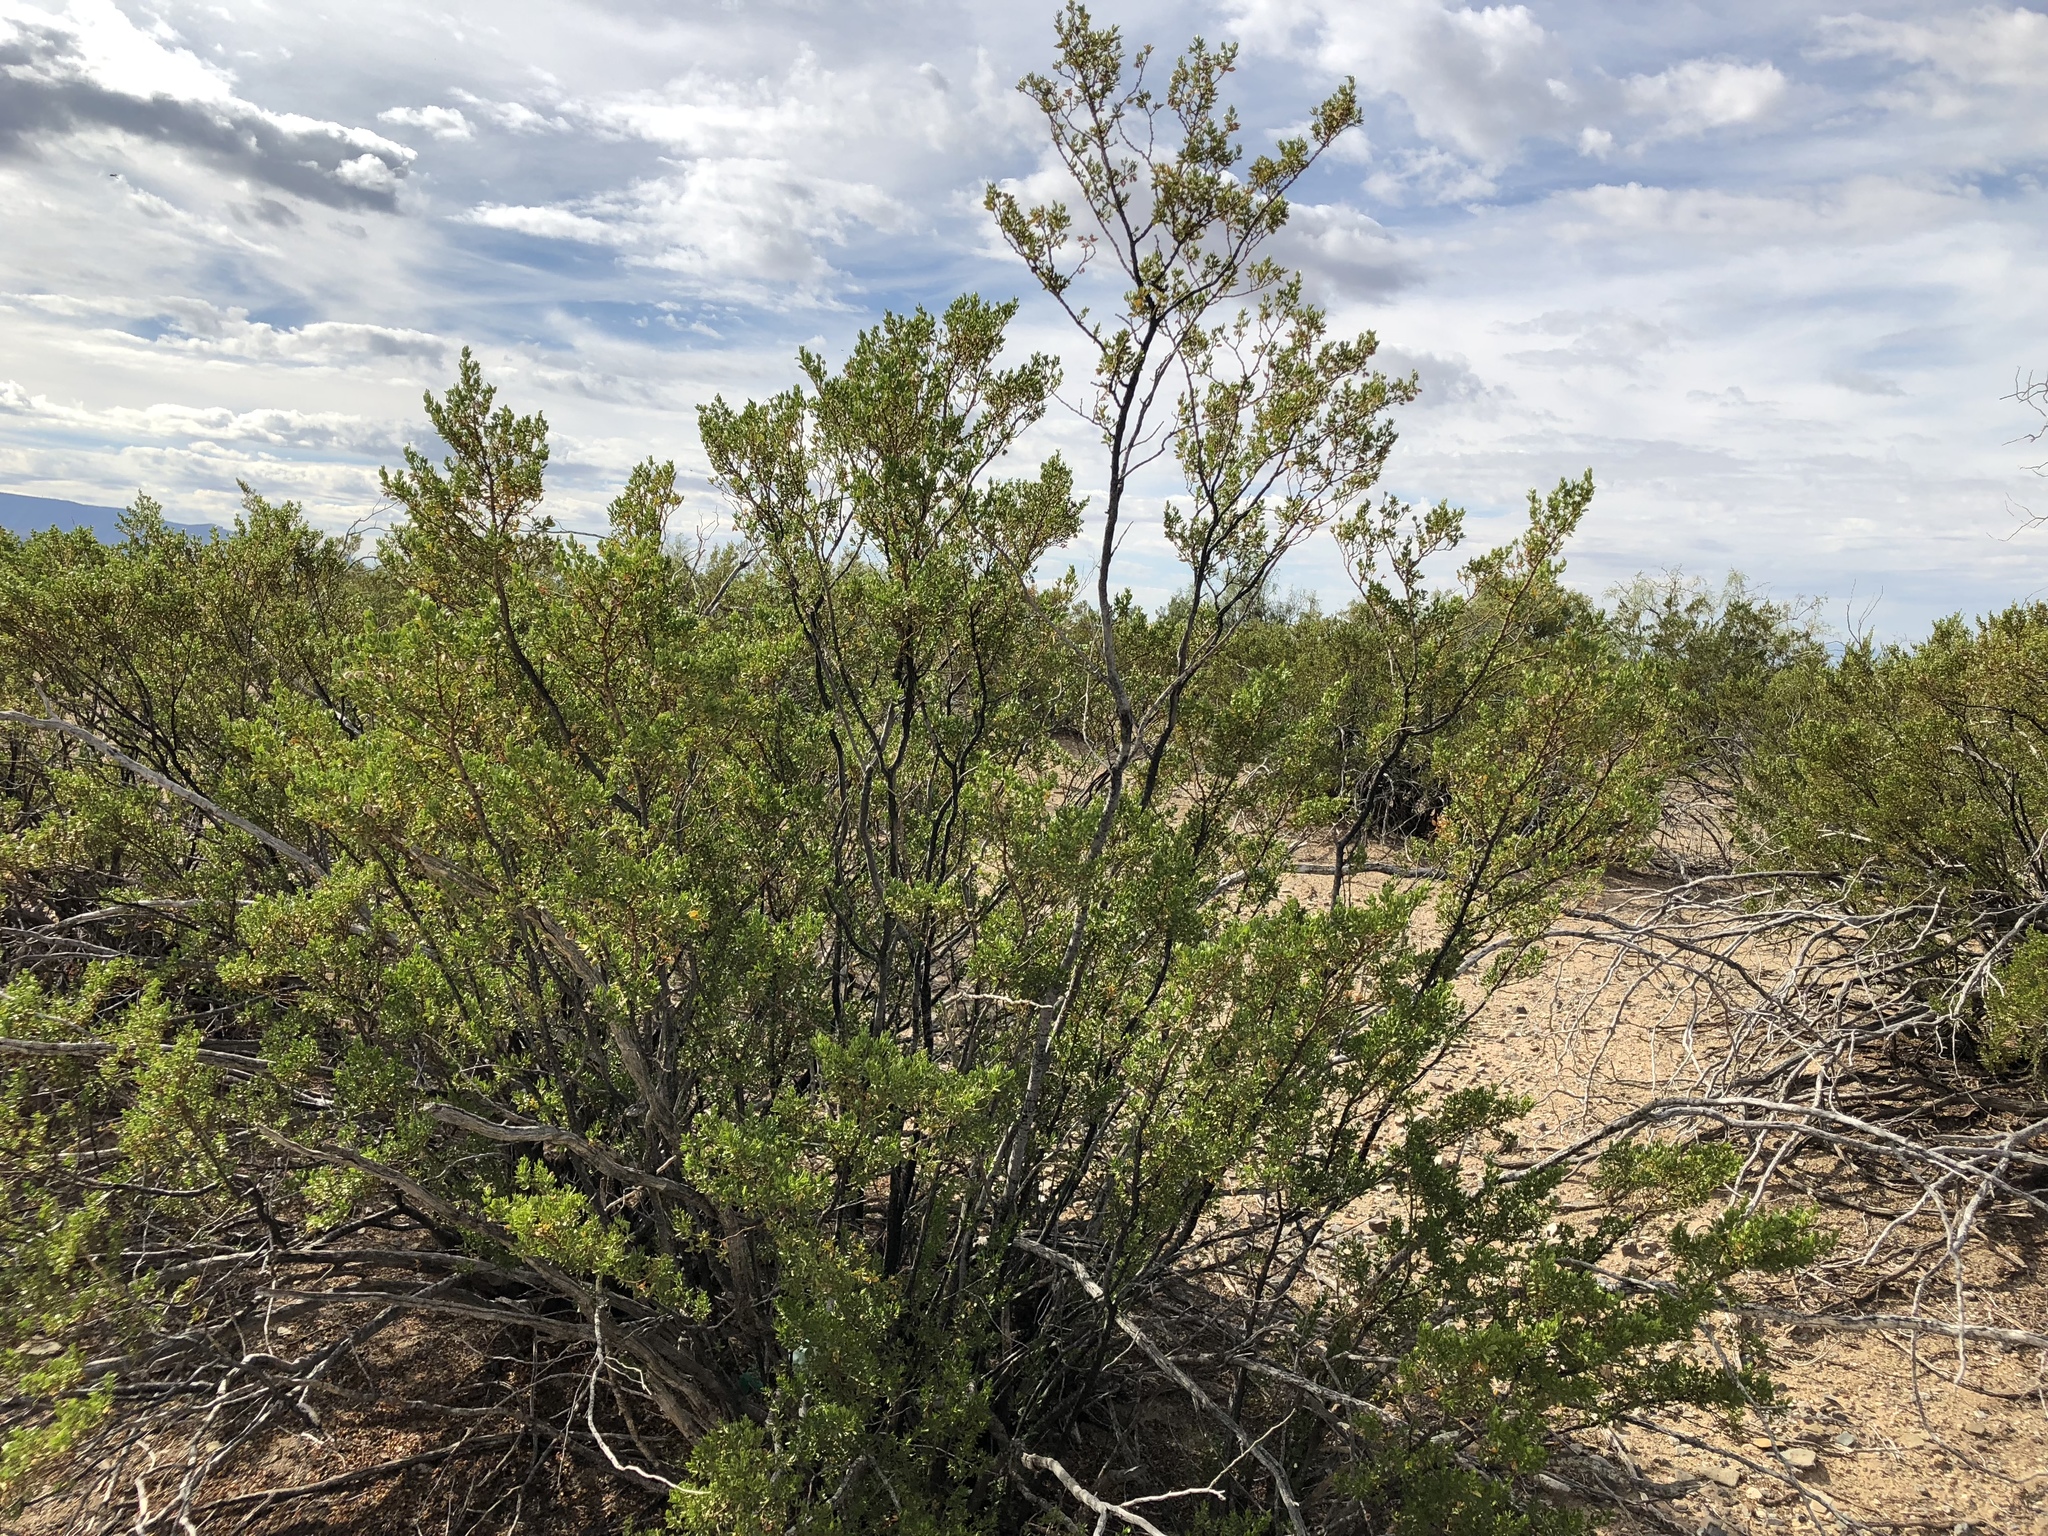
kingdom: Plantae
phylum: Tracheophyta
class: Magnoliopsida
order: Zygophyllales
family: Zygophyllaceae
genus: Larrea
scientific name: Larrea tridentata
